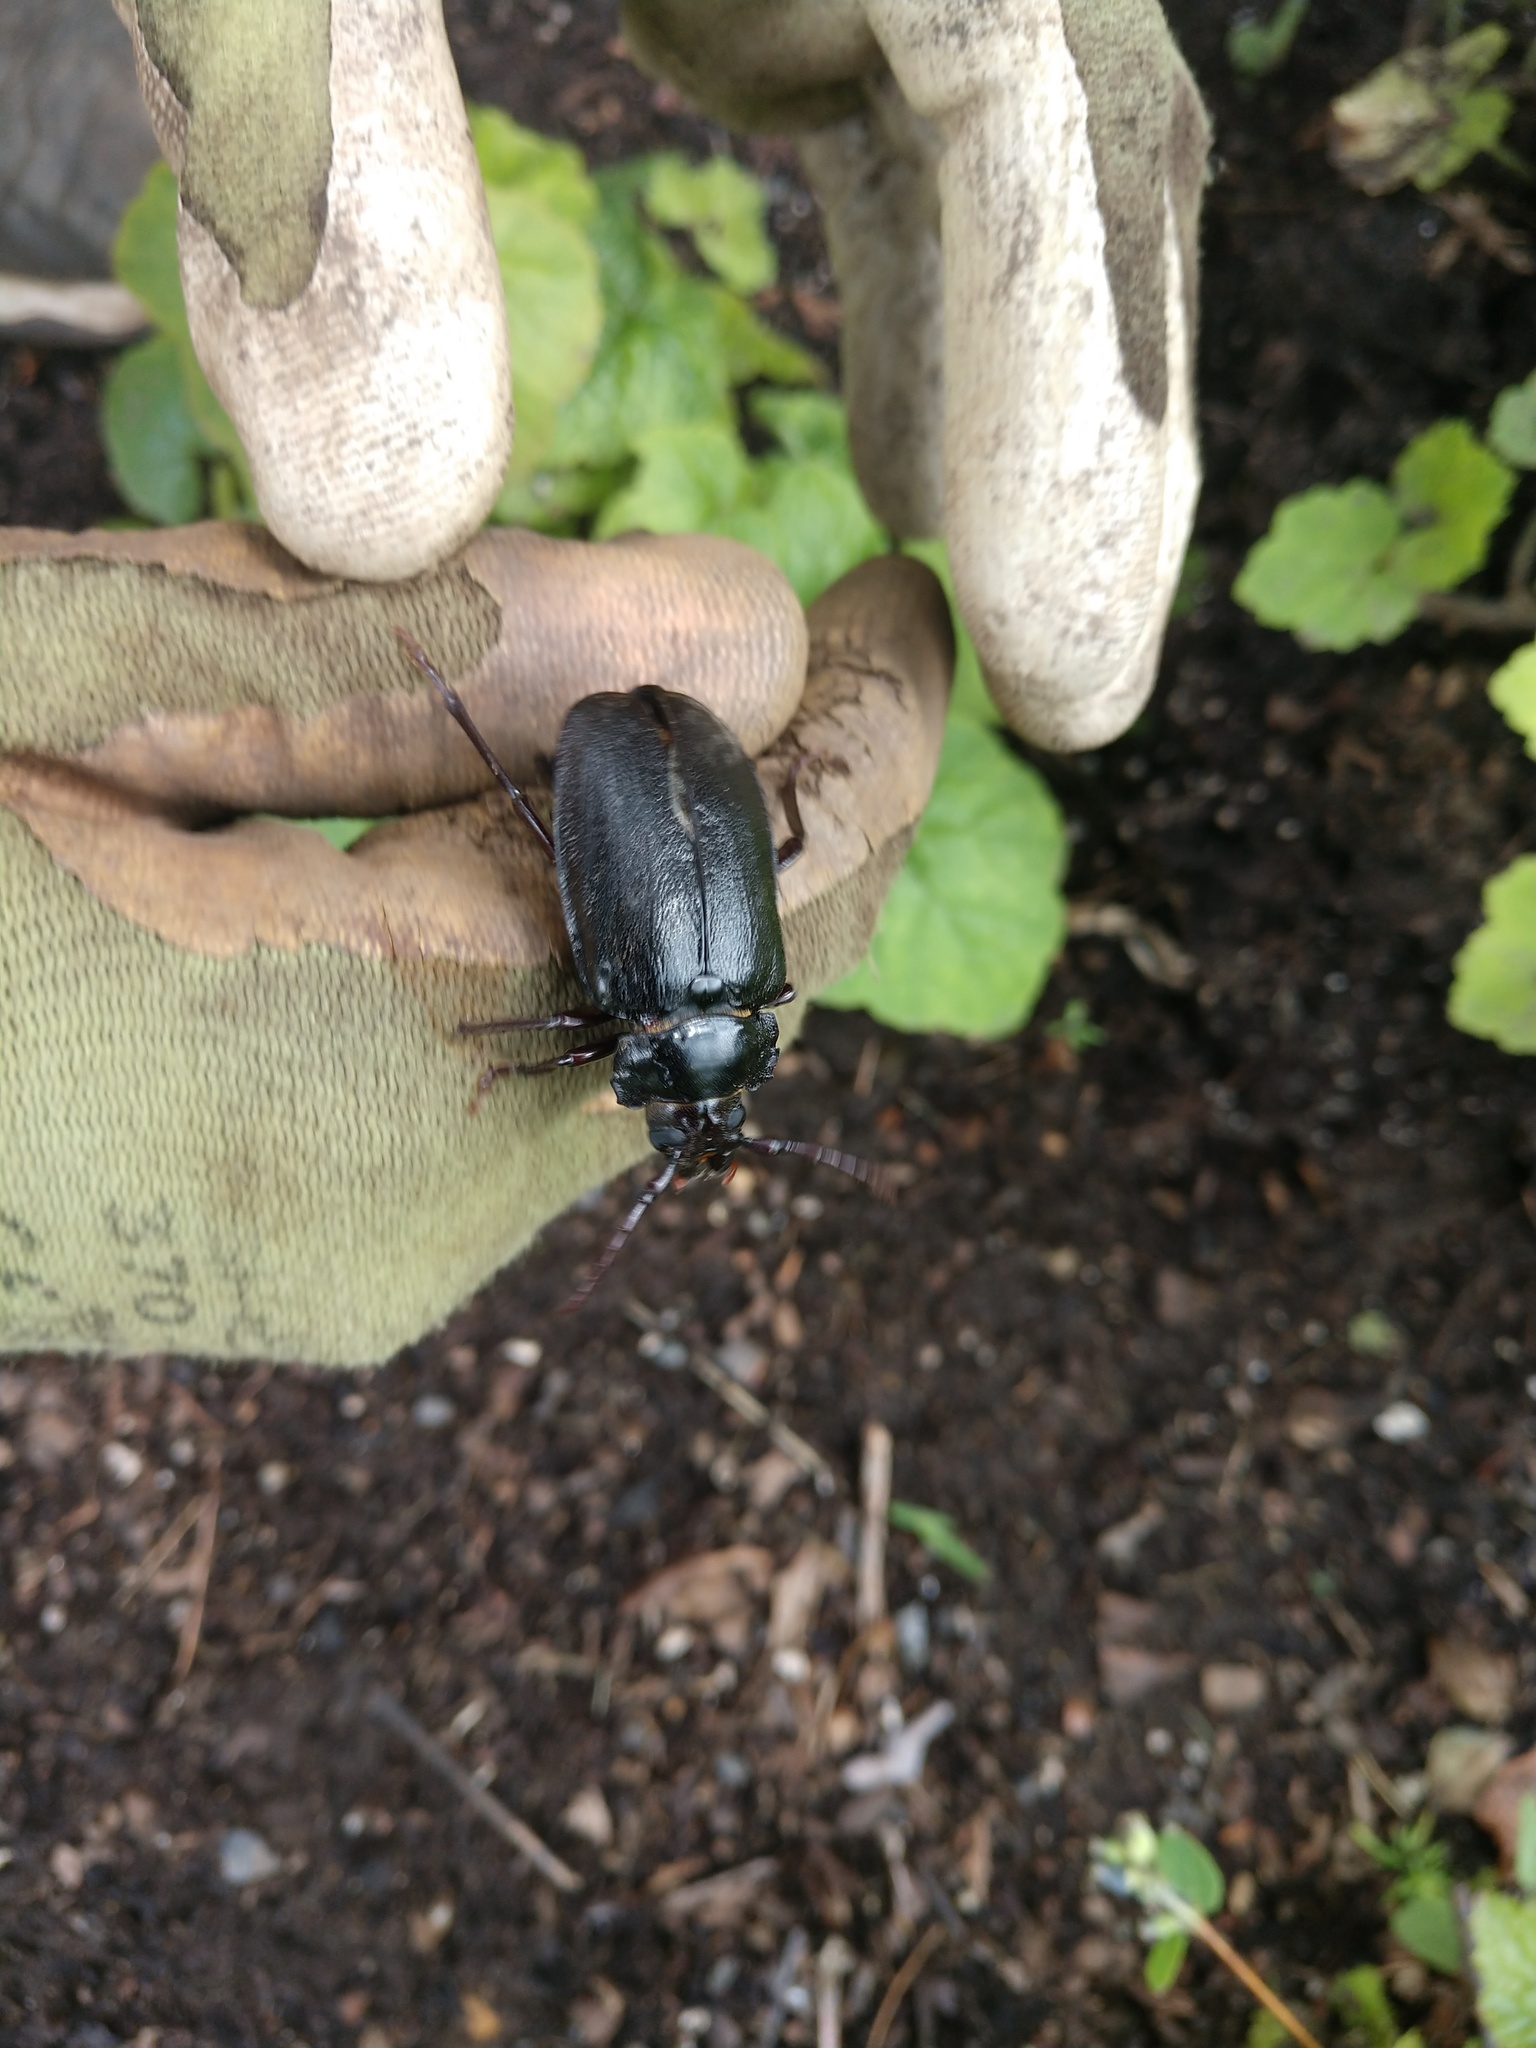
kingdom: Animalia
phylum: Arthropoda
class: Insecta
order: Coleoptera
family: Cerambycidae
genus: Prionus
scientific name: Prionus laticollis
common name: Broad necked prionus
